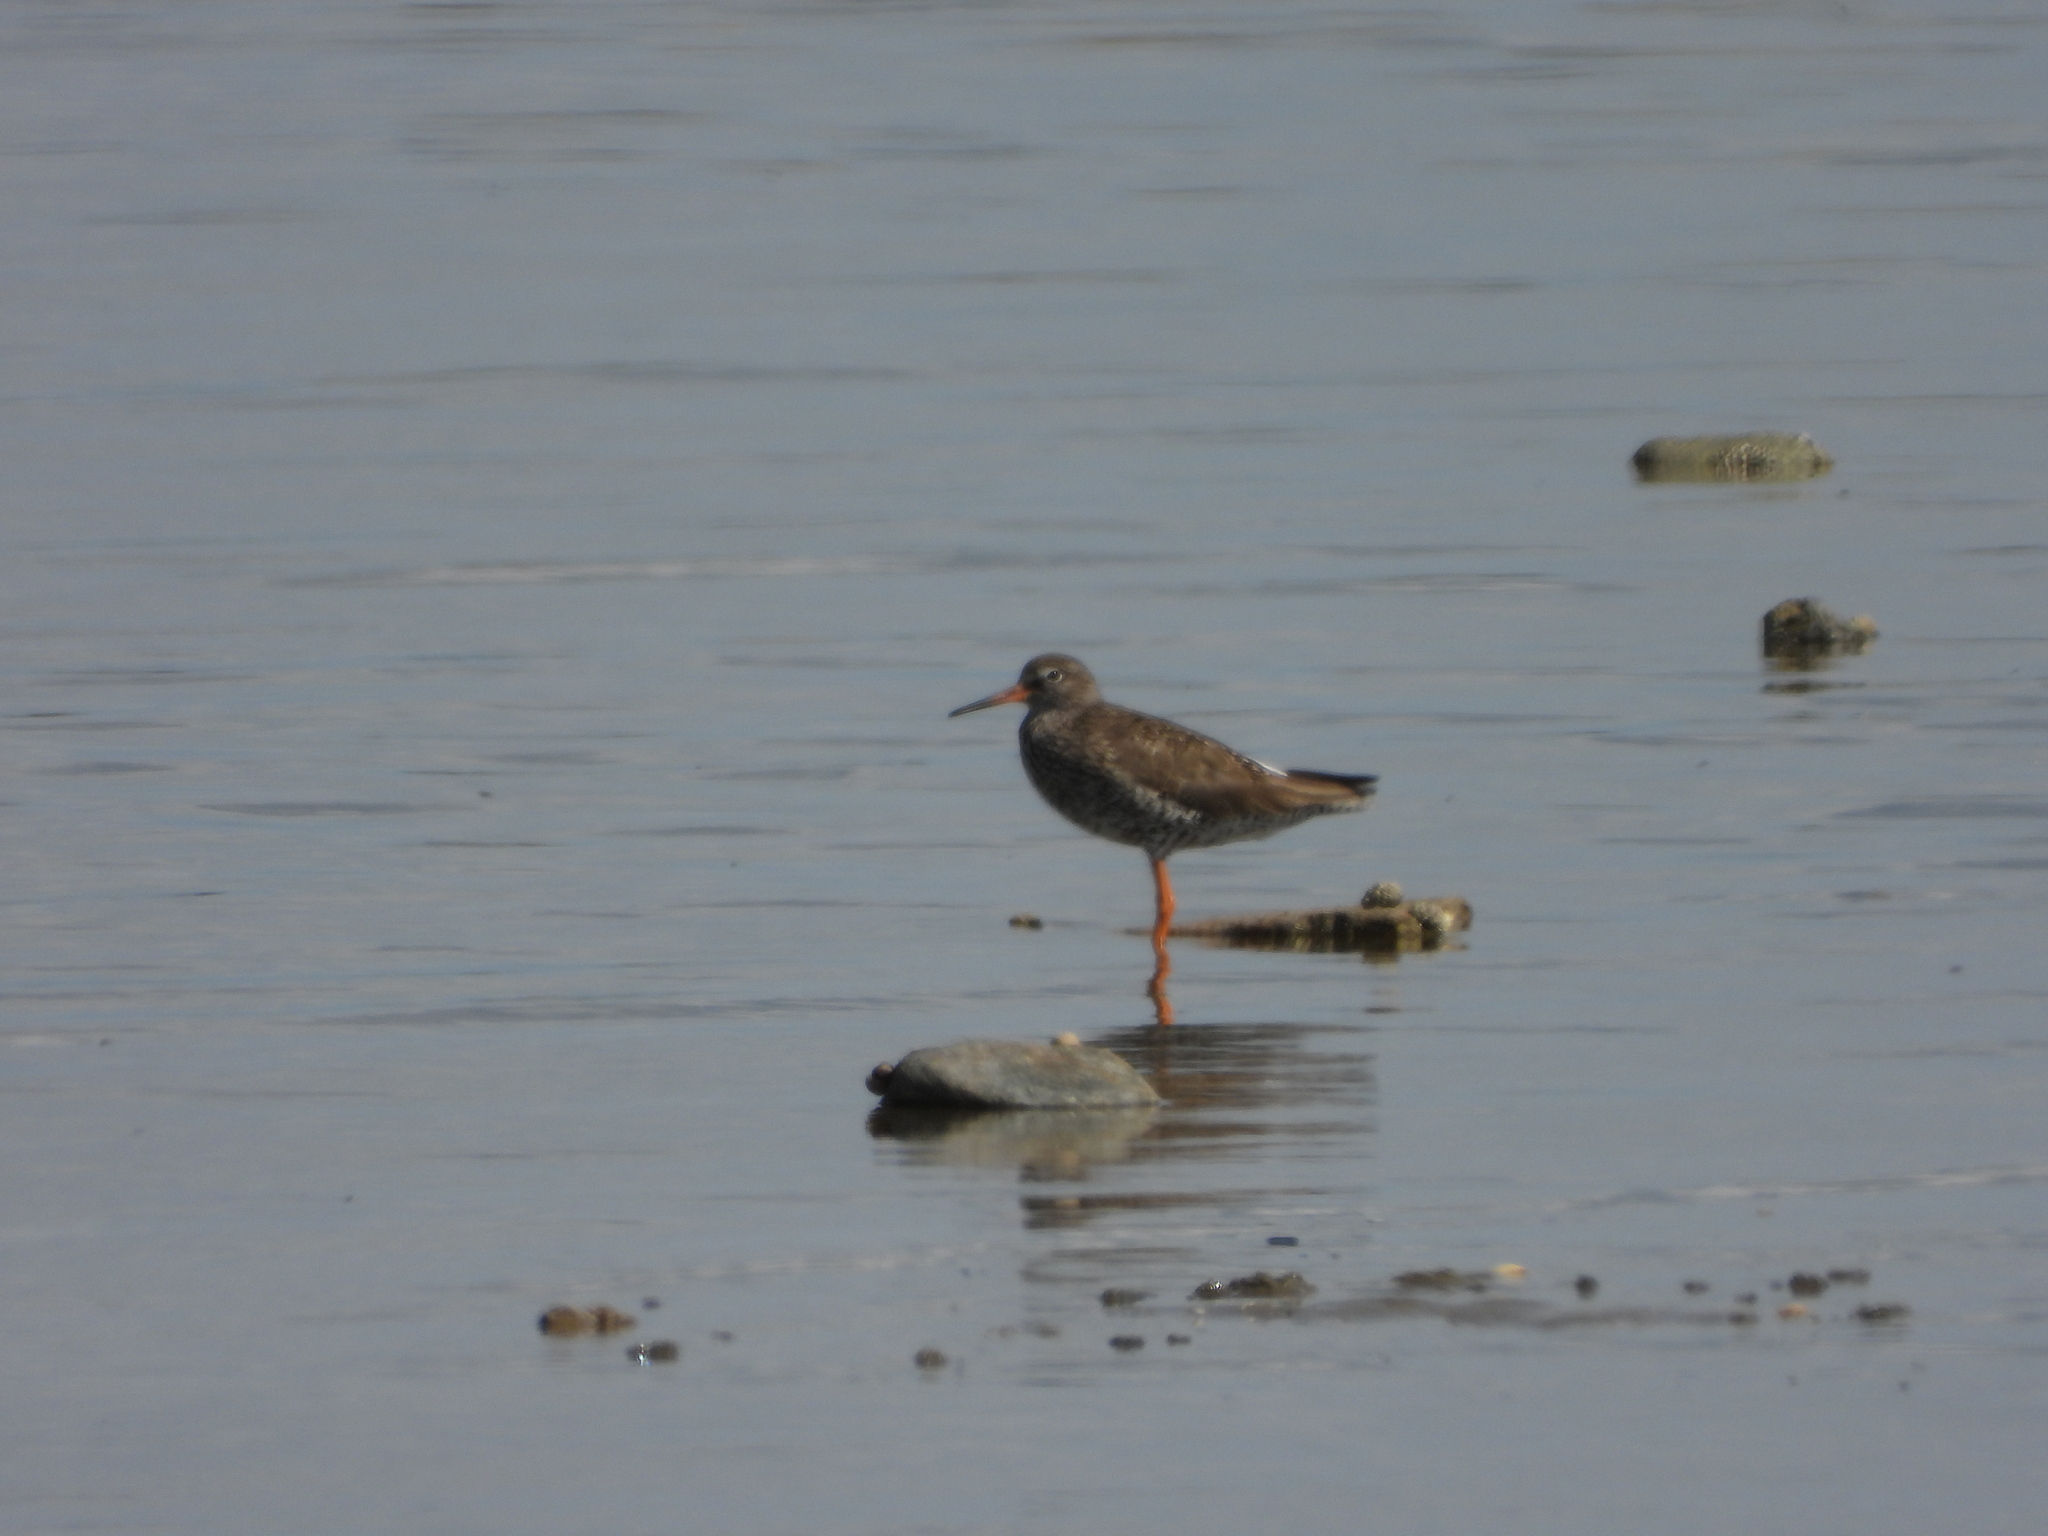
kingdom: Animalia
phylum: Chordata
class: Aves
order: Charadriiformes
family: Scolopacidae
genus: Tringa
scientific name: Tringa totanus
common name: Common redshank
